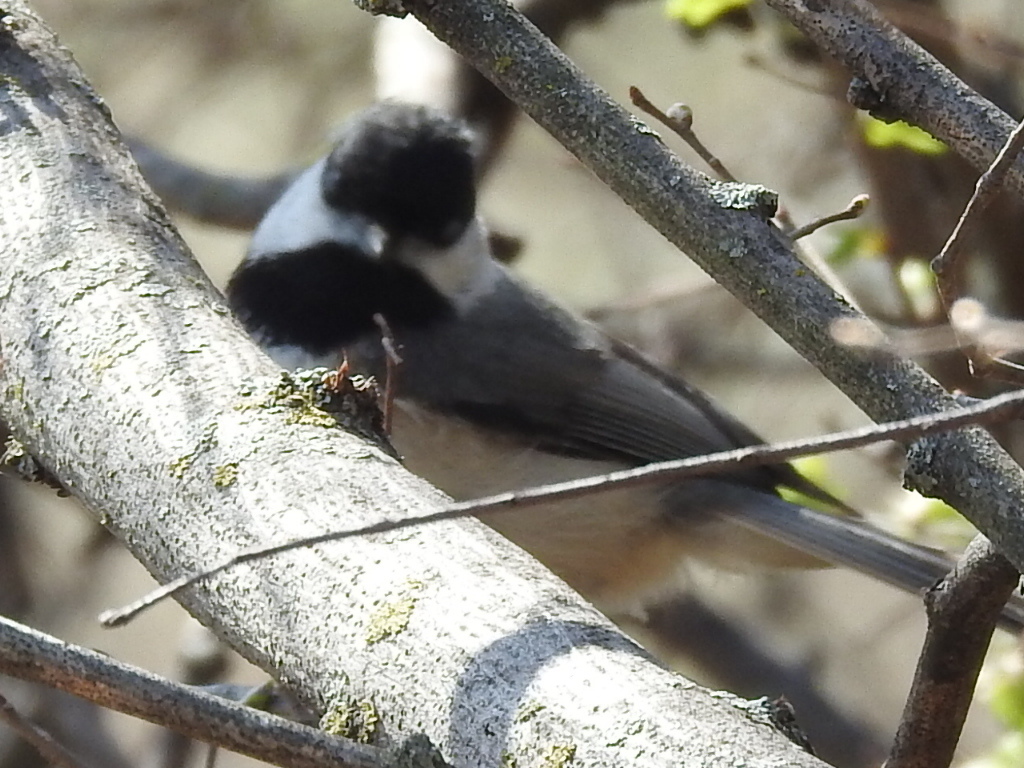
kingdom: Animalia
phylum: Chordata
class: Aves
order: Passeriformes
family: Paridae
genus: Poecile
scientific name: Poecile carolinensis
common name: Carolina chickadee
